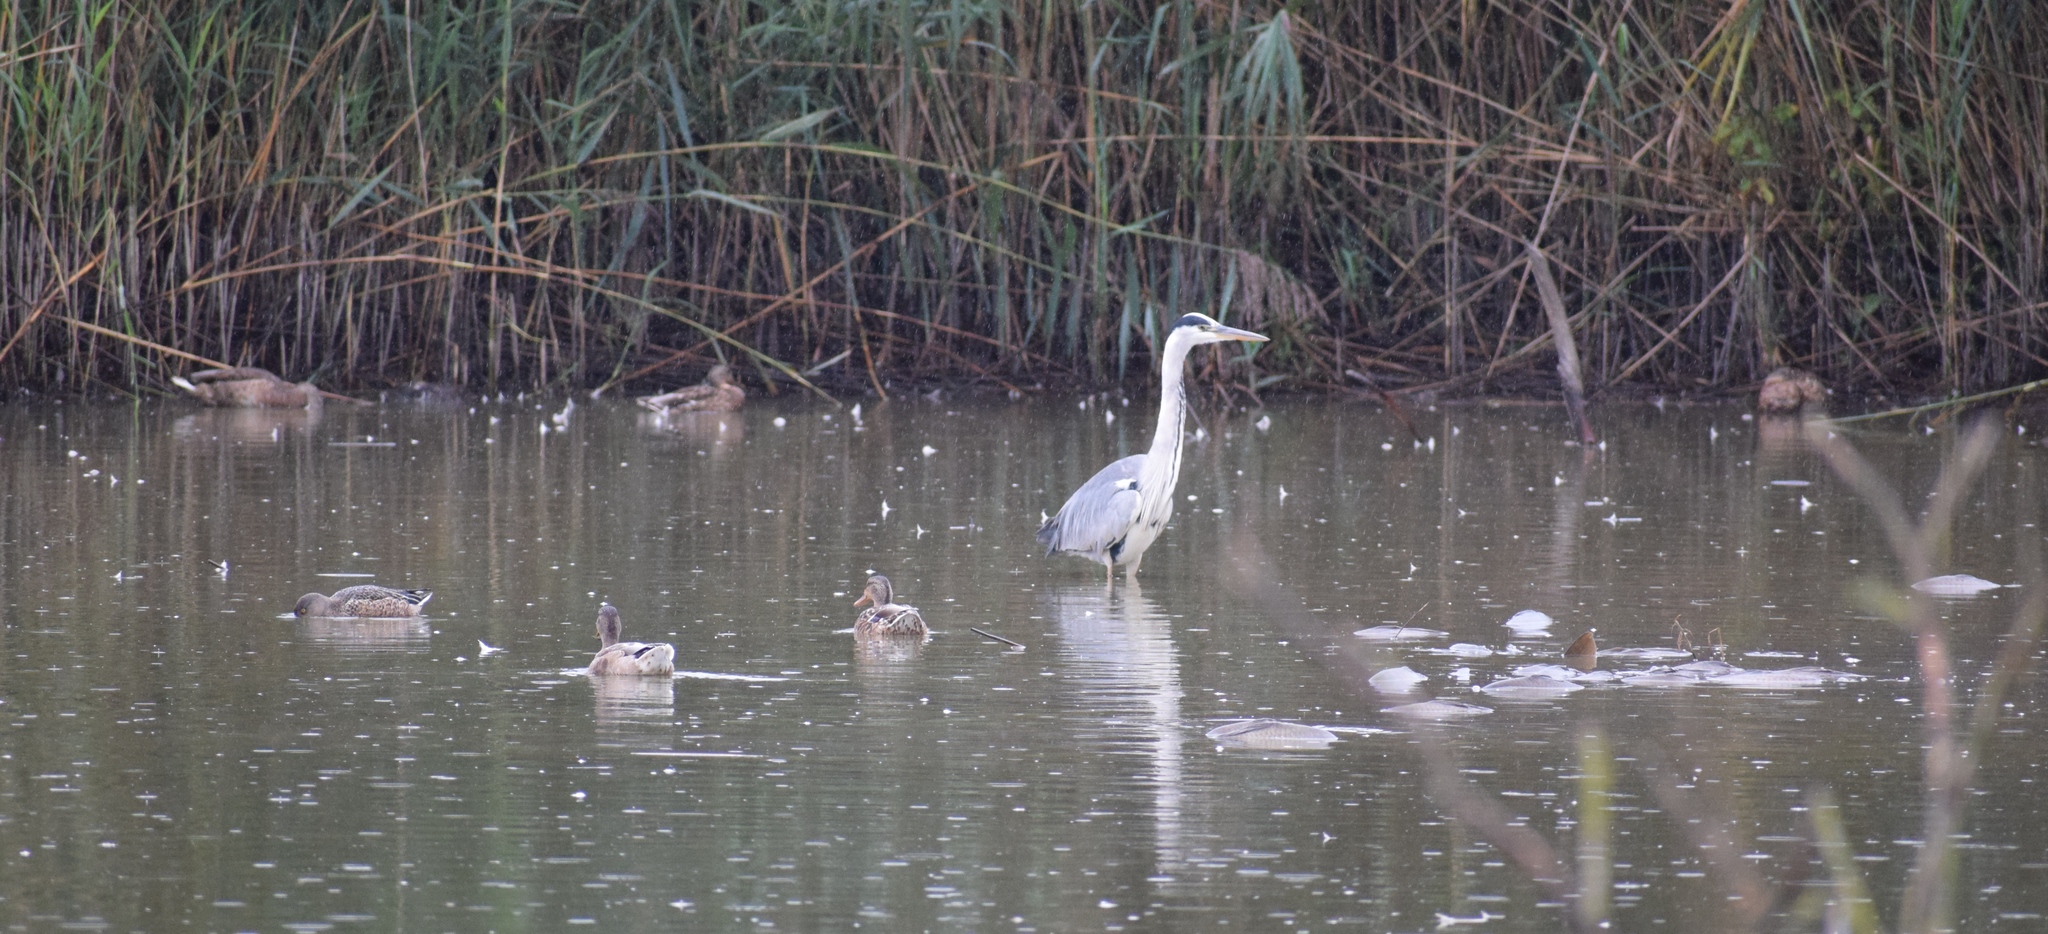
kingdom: Animalia
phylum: Chordata
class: Aves
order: Pelecaniformes
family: Ardeidae
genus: Ardea
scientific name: Ardea cinerea
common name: Grey heron
